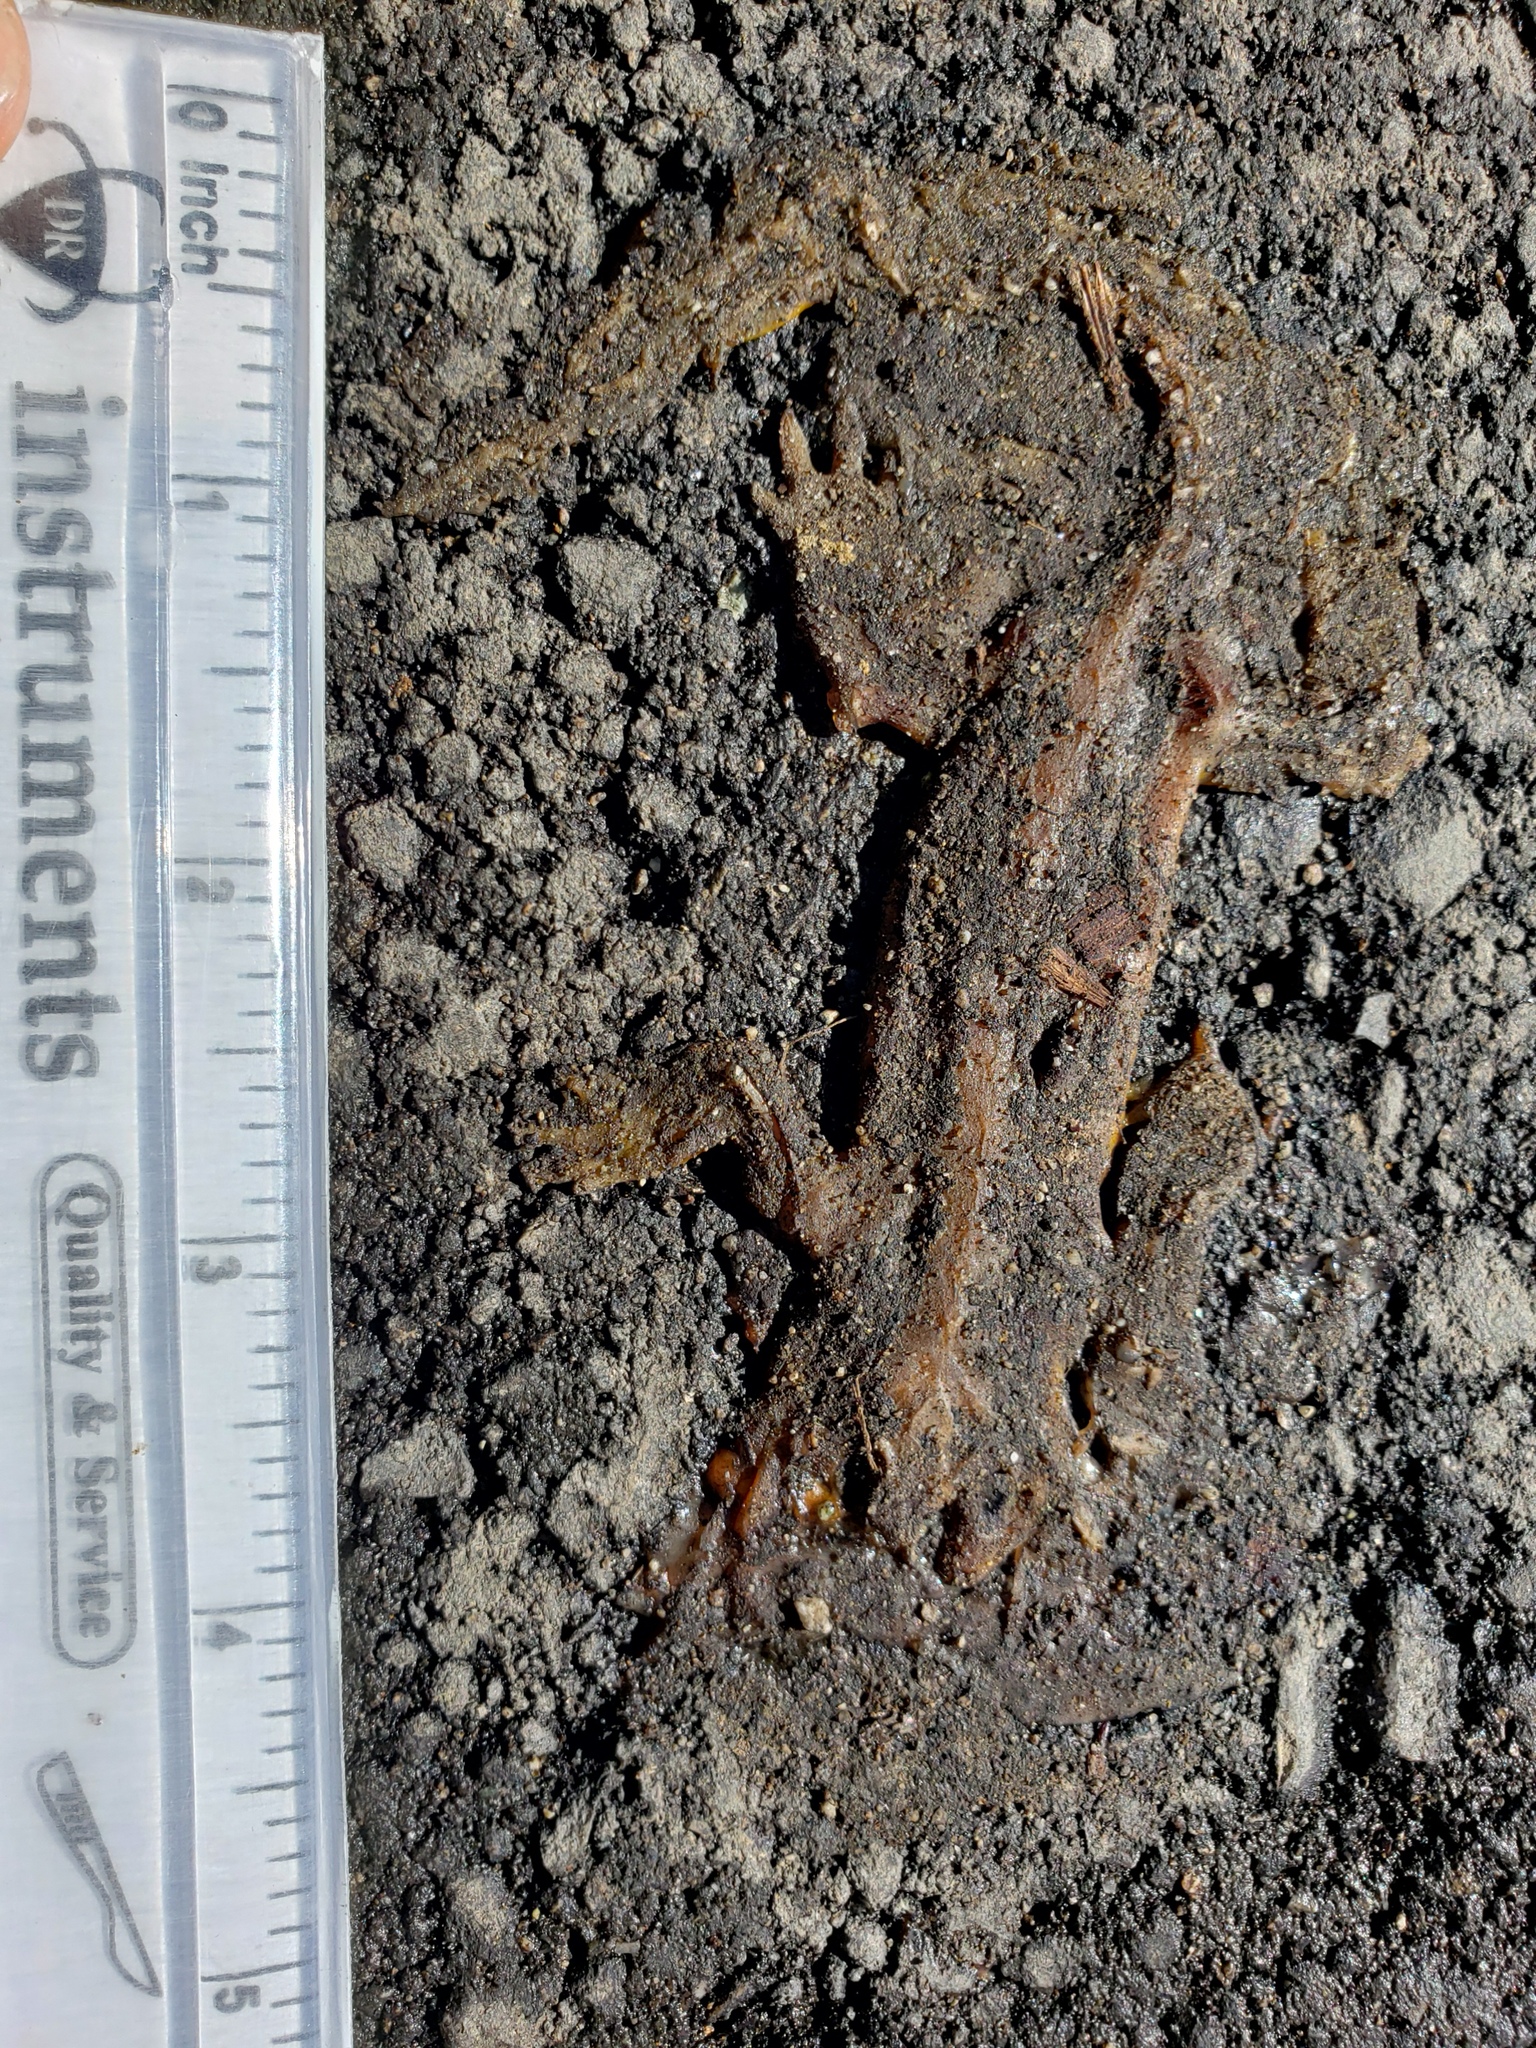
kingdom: Animalia
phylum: Chordata
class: Amphibia
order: Caudata
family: Salamandridae
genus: Taricha
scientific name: Taricha
